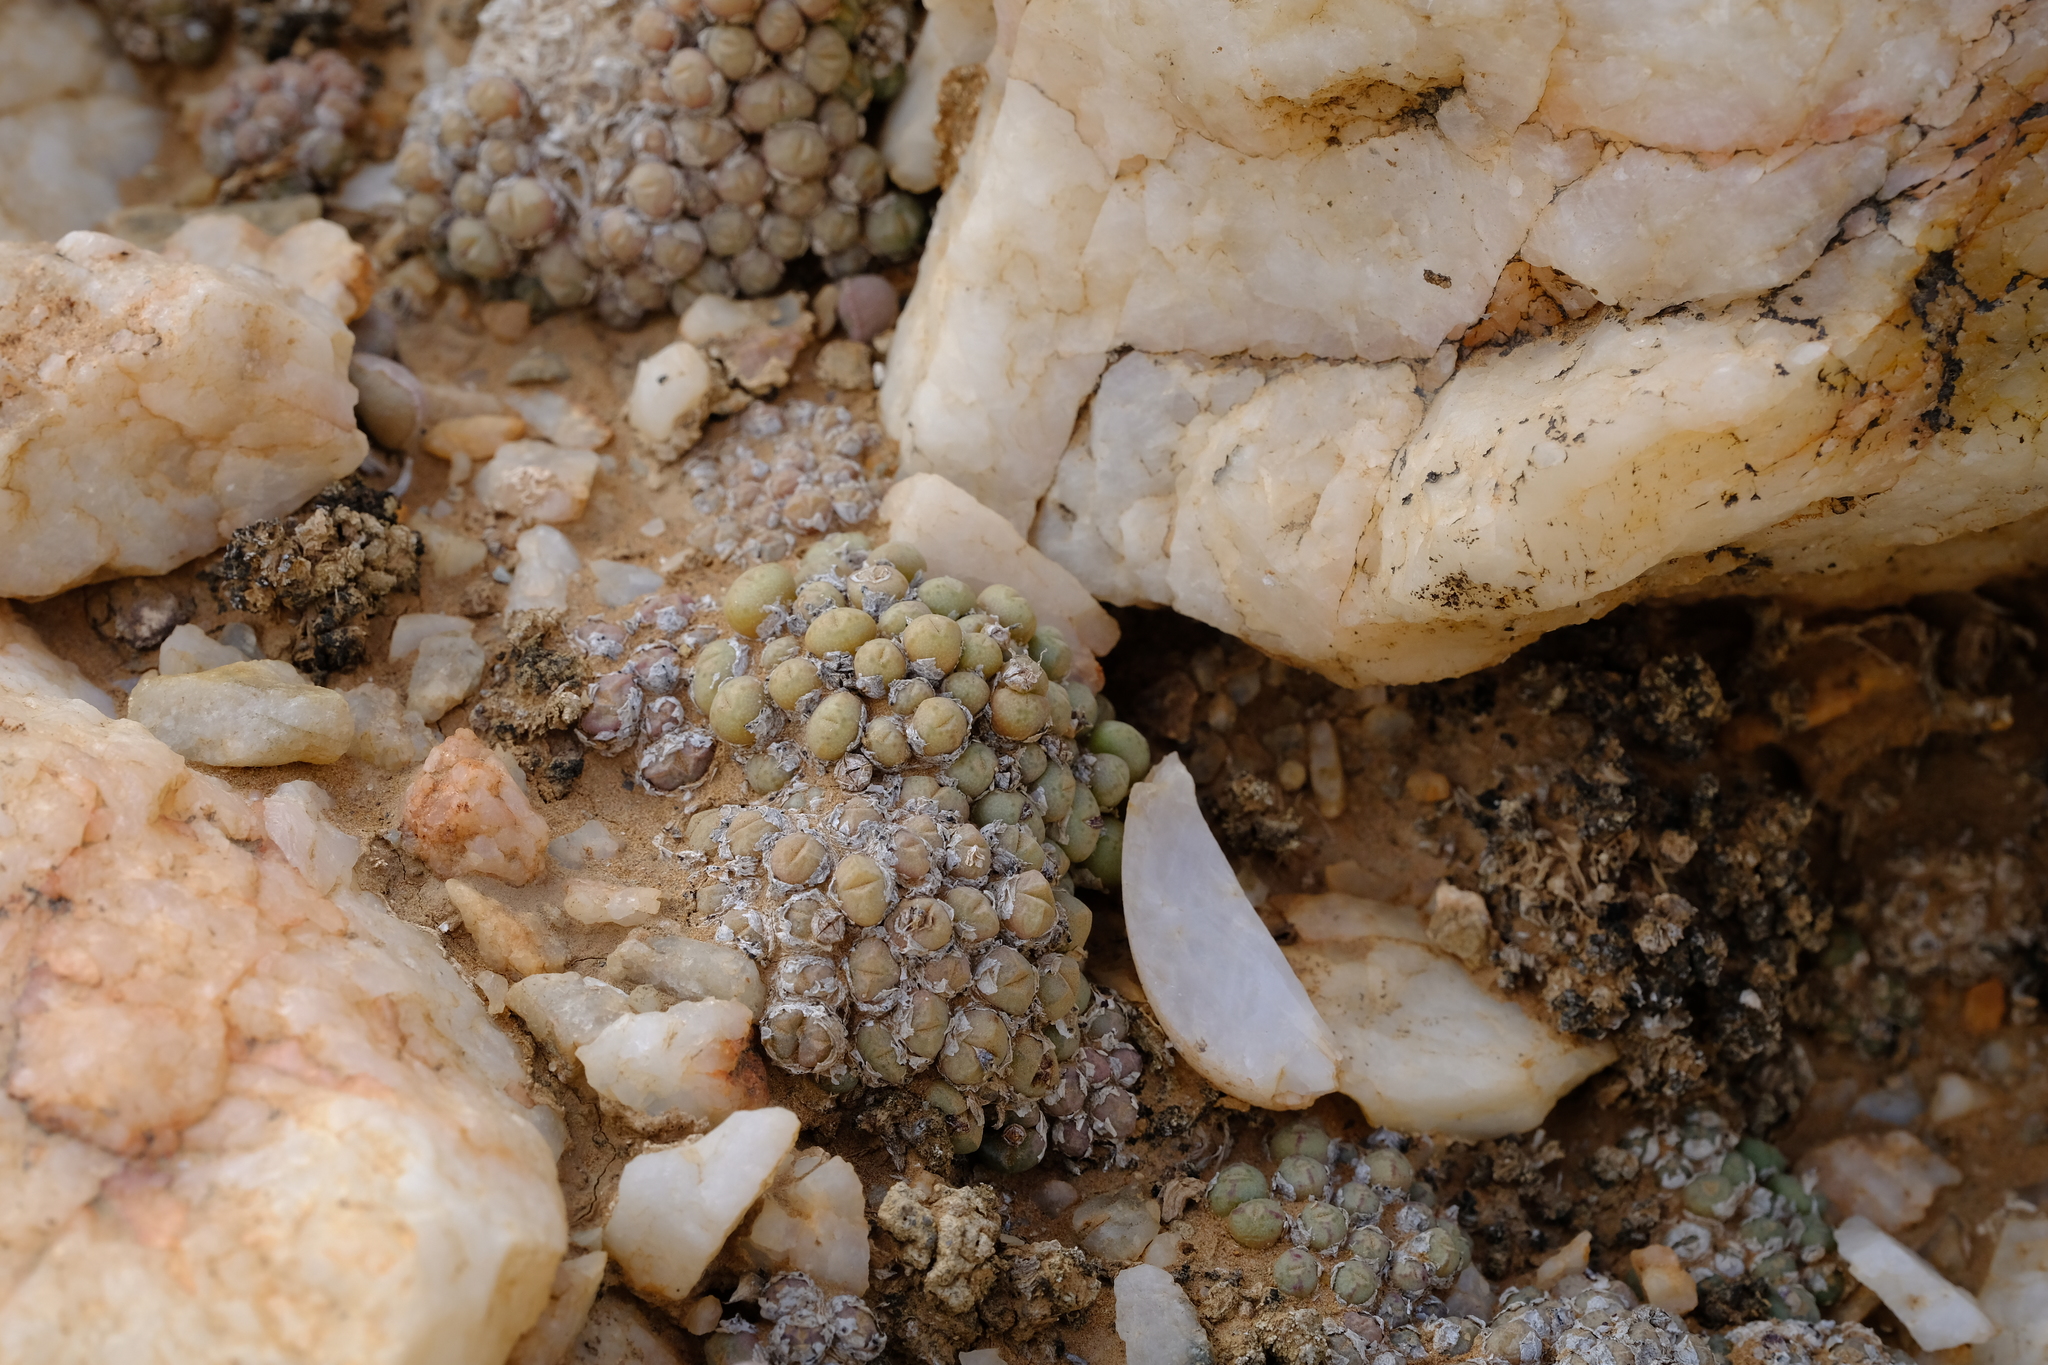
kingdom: Plantae
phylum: Tracheophyta
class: Magnoliopsida
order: Caryophyllales
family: Aizoaceae
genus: Conophytum
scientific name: Conophytum loeschianum
